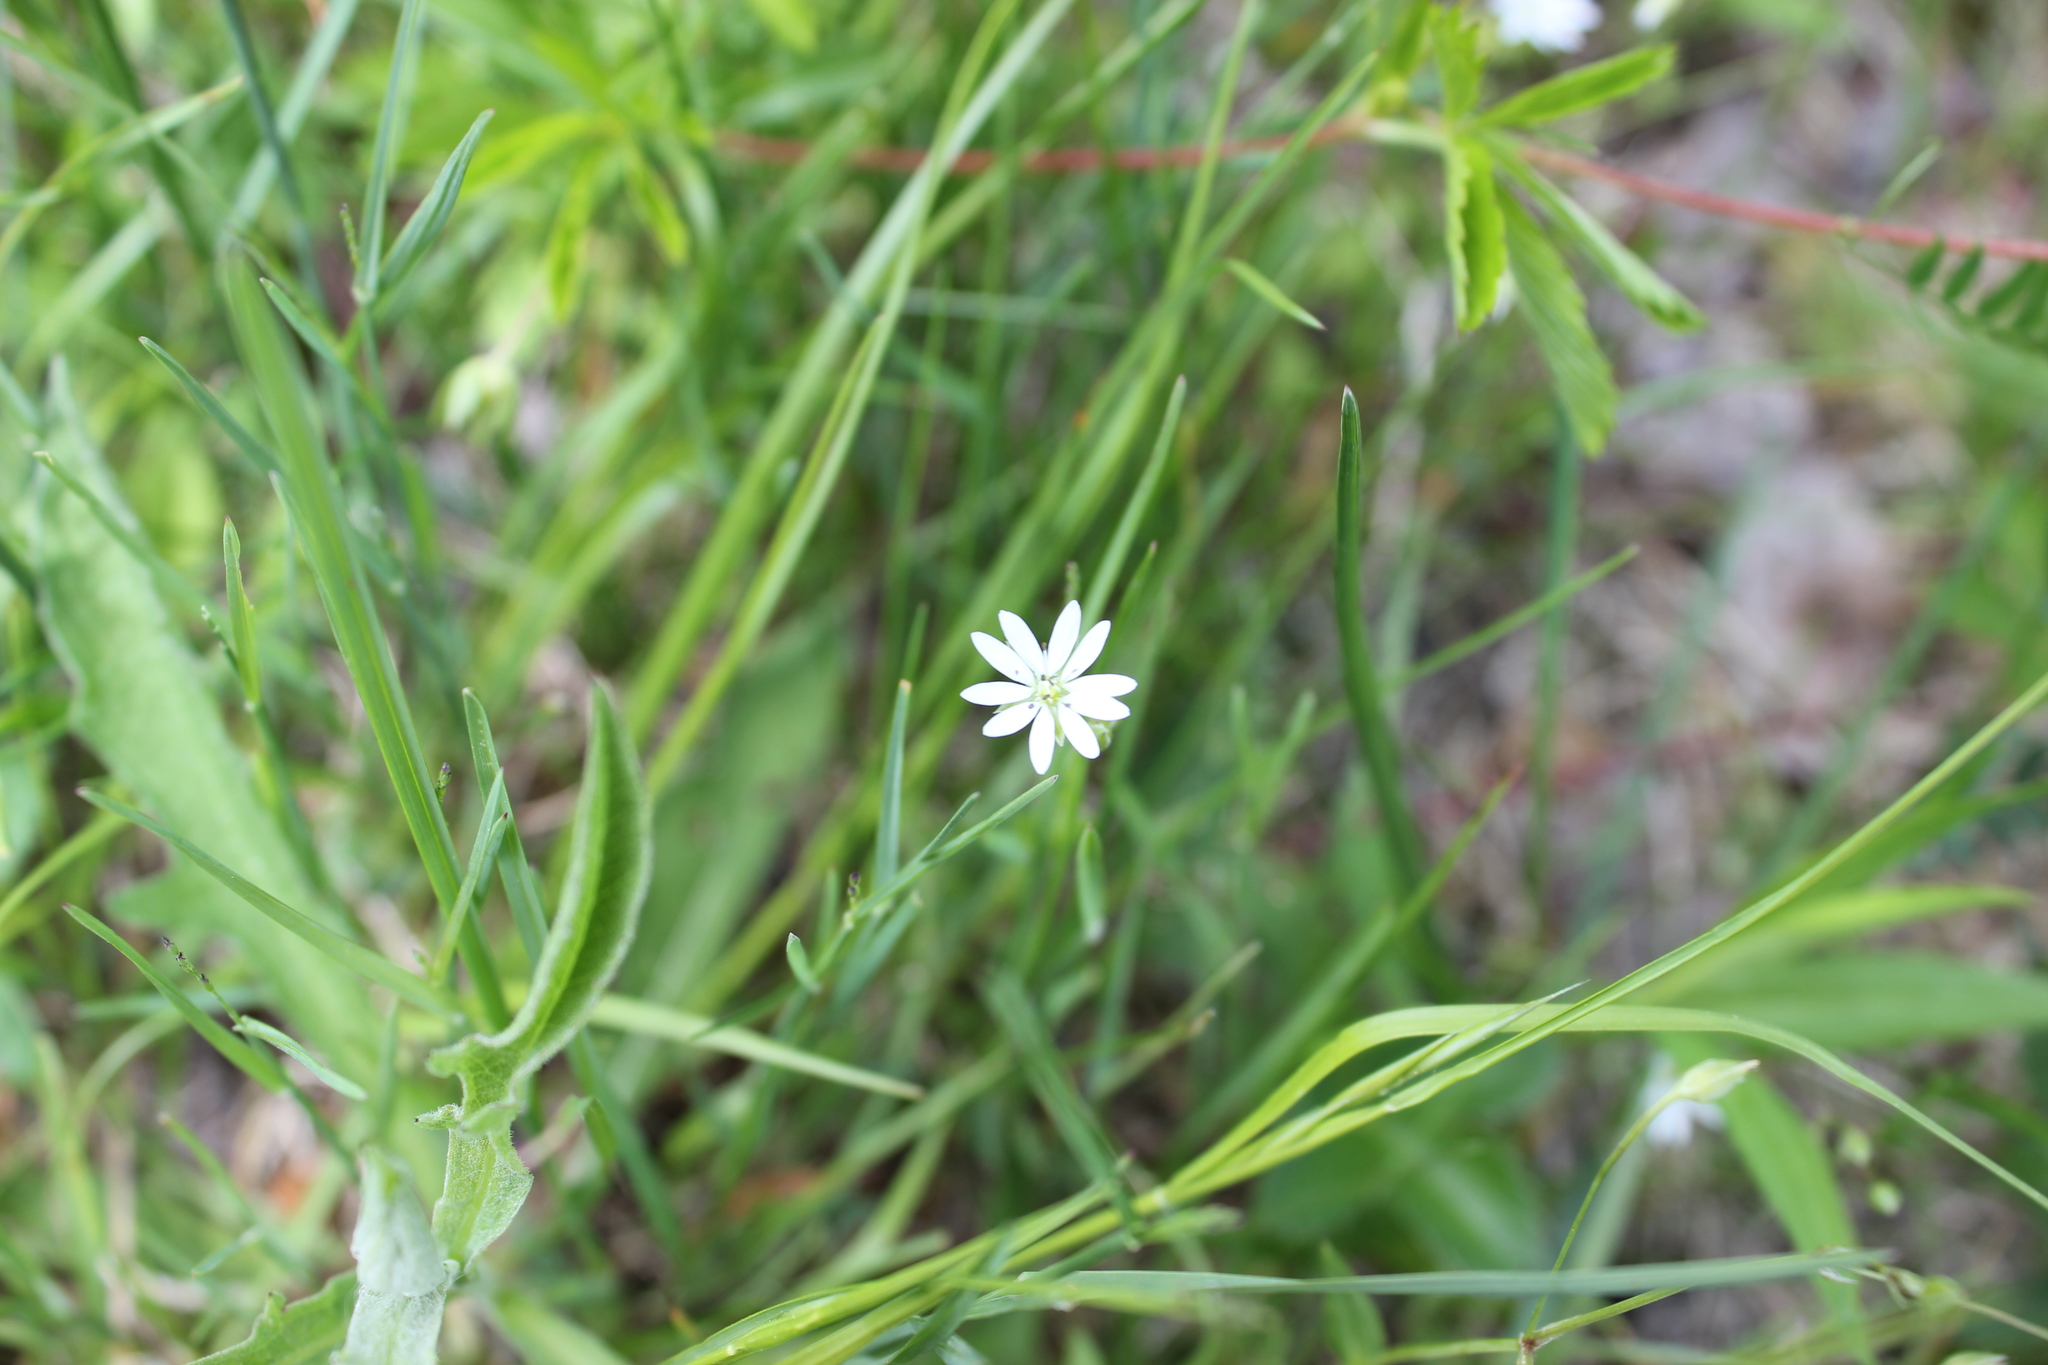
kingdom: Plantae
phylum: Tracheophyta
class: Magnoliopsida
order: Caryophyllales
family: Caryophyllaceae
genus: Stellaria
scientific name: Stellaria graminea
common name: Grass-like starwort
